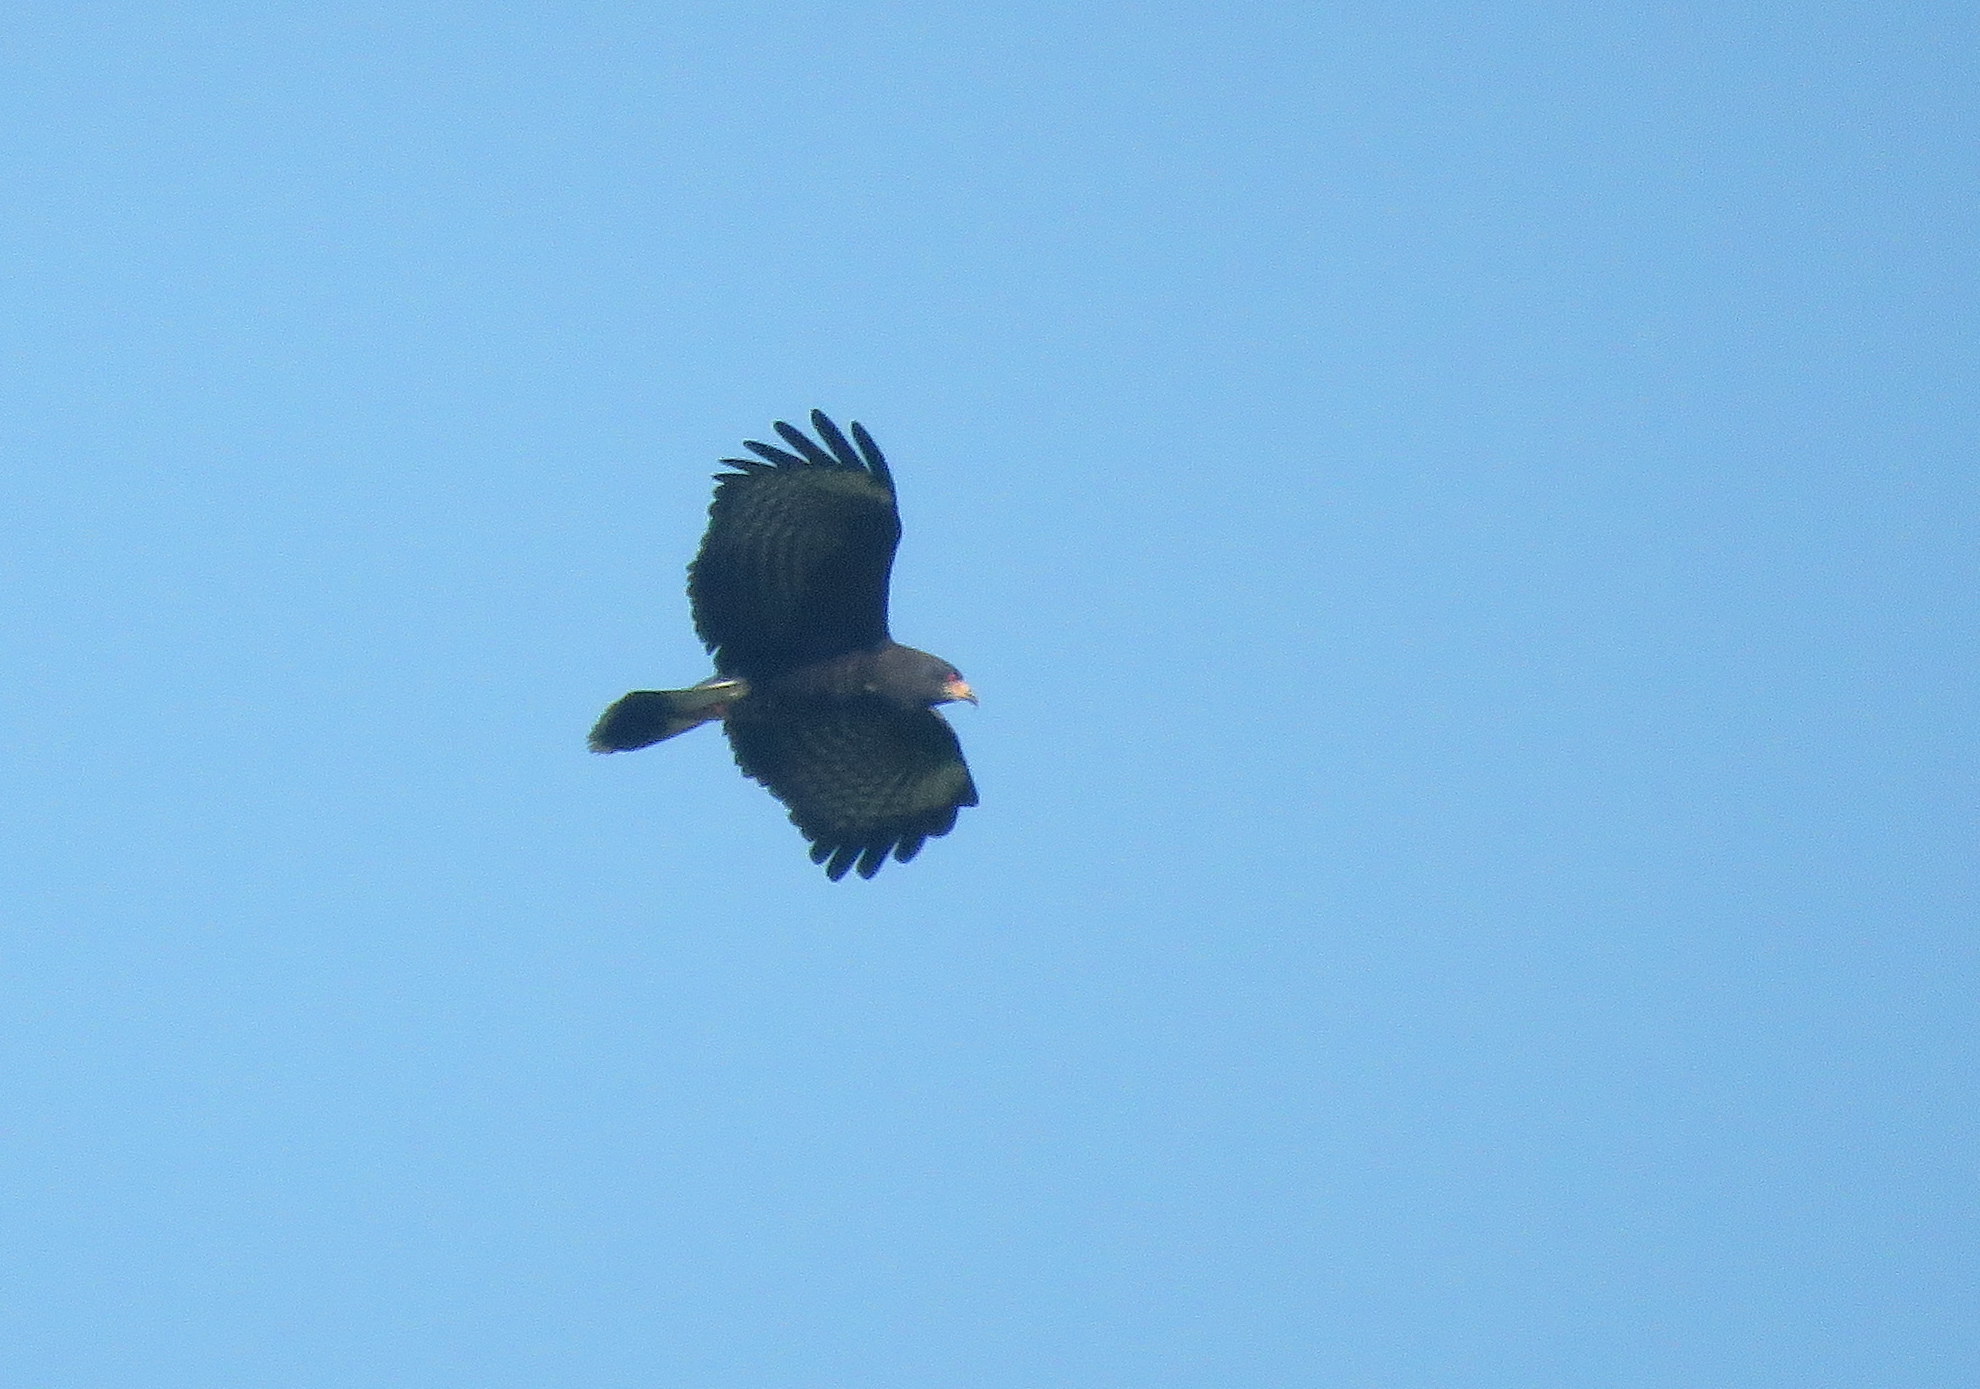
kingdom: Animalia
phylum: Chordata
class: Aves
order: Accipitriformes
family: Accipitridae
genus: Rostrhamus
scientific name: Rostrhamus sociabilis
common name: Snail kite
